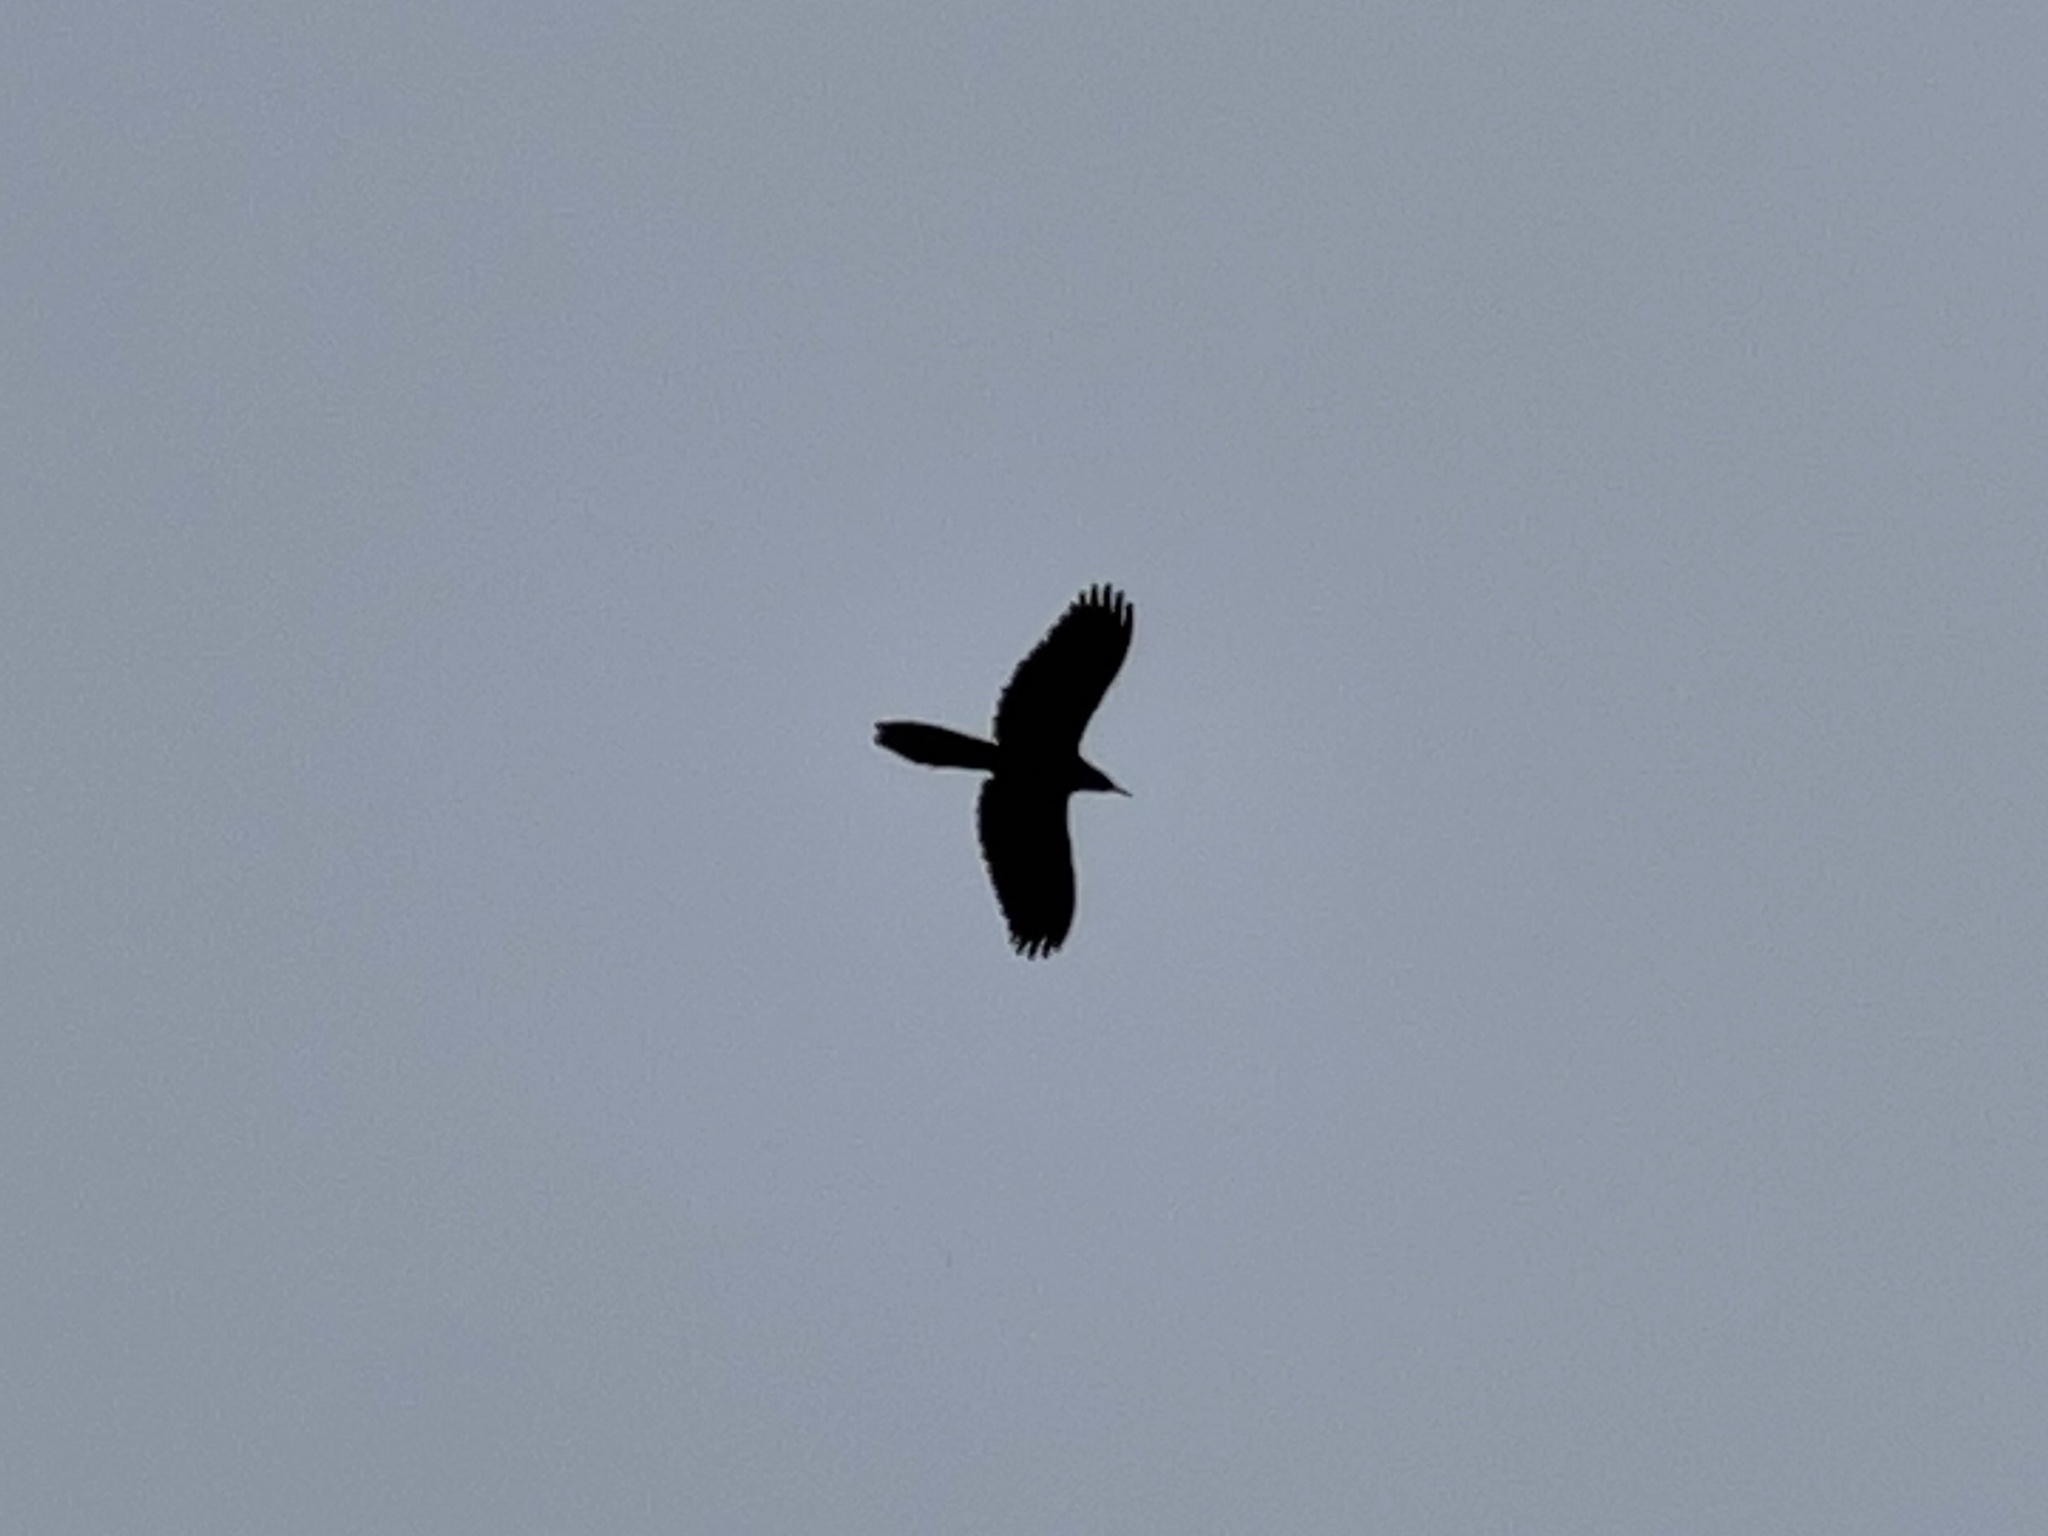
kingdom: Animalia
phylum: Chordata
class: Aves
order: Passeriformes
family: Icteridae
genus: Quiscalus
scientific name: Quiscalus mexicanus
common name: Great-tailed grackle
